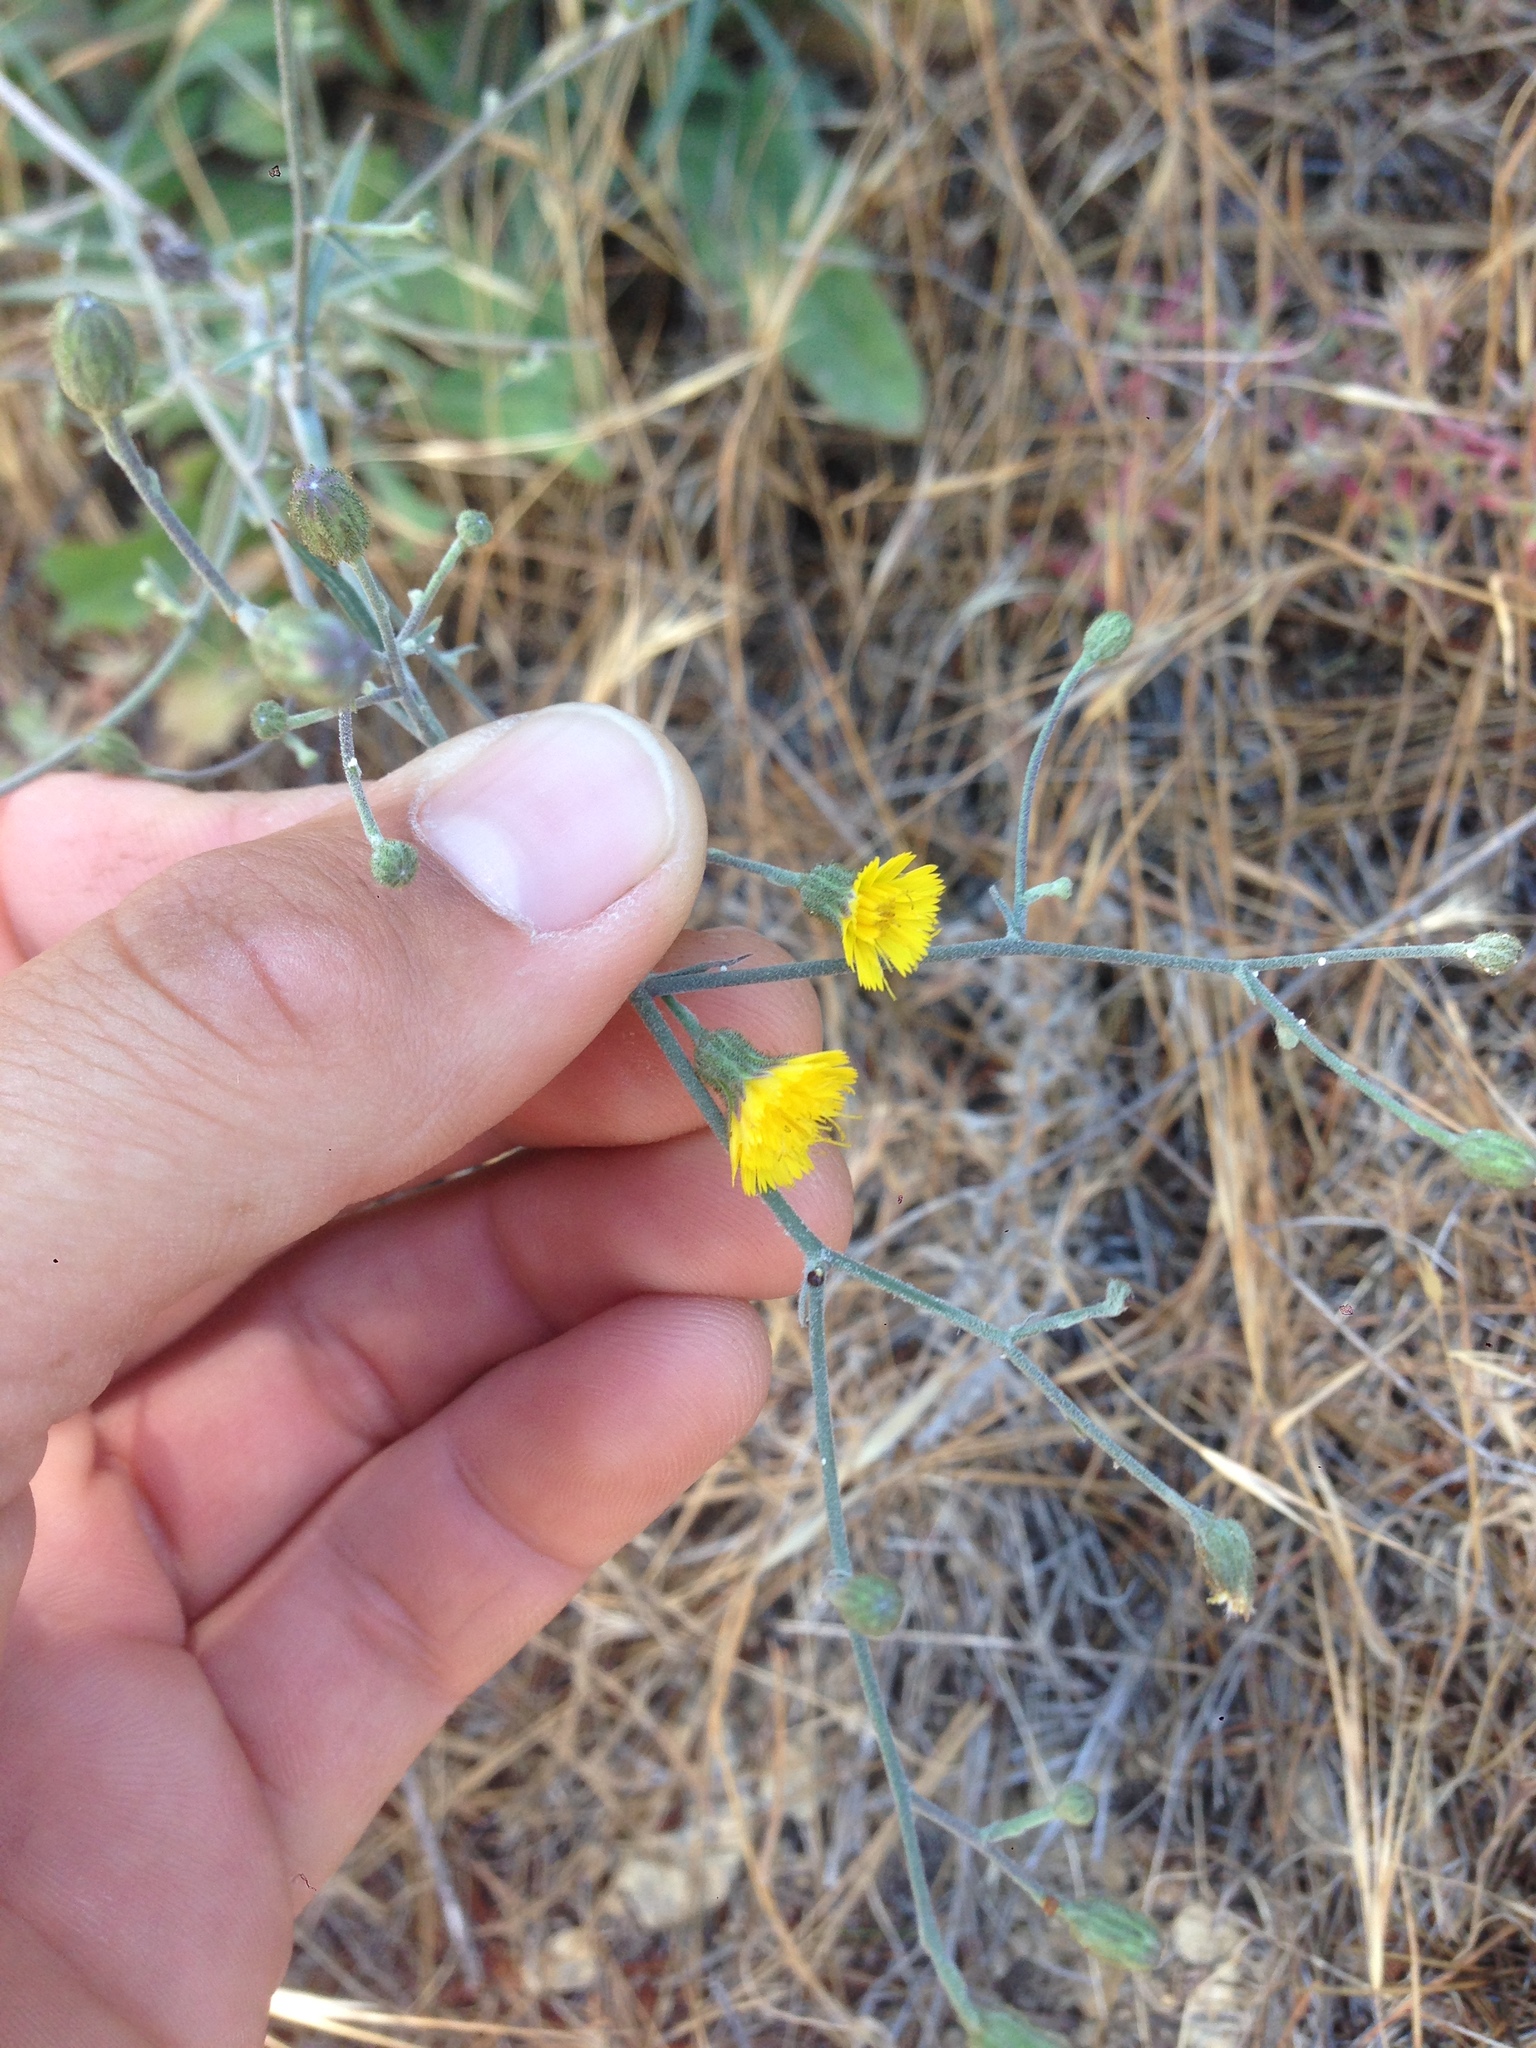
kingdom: Plantae
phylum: Tracheophyta
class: Magnoliopsida
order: Asterales
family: Asteraceae
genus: Hieracium
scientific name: Hieracium argutum
